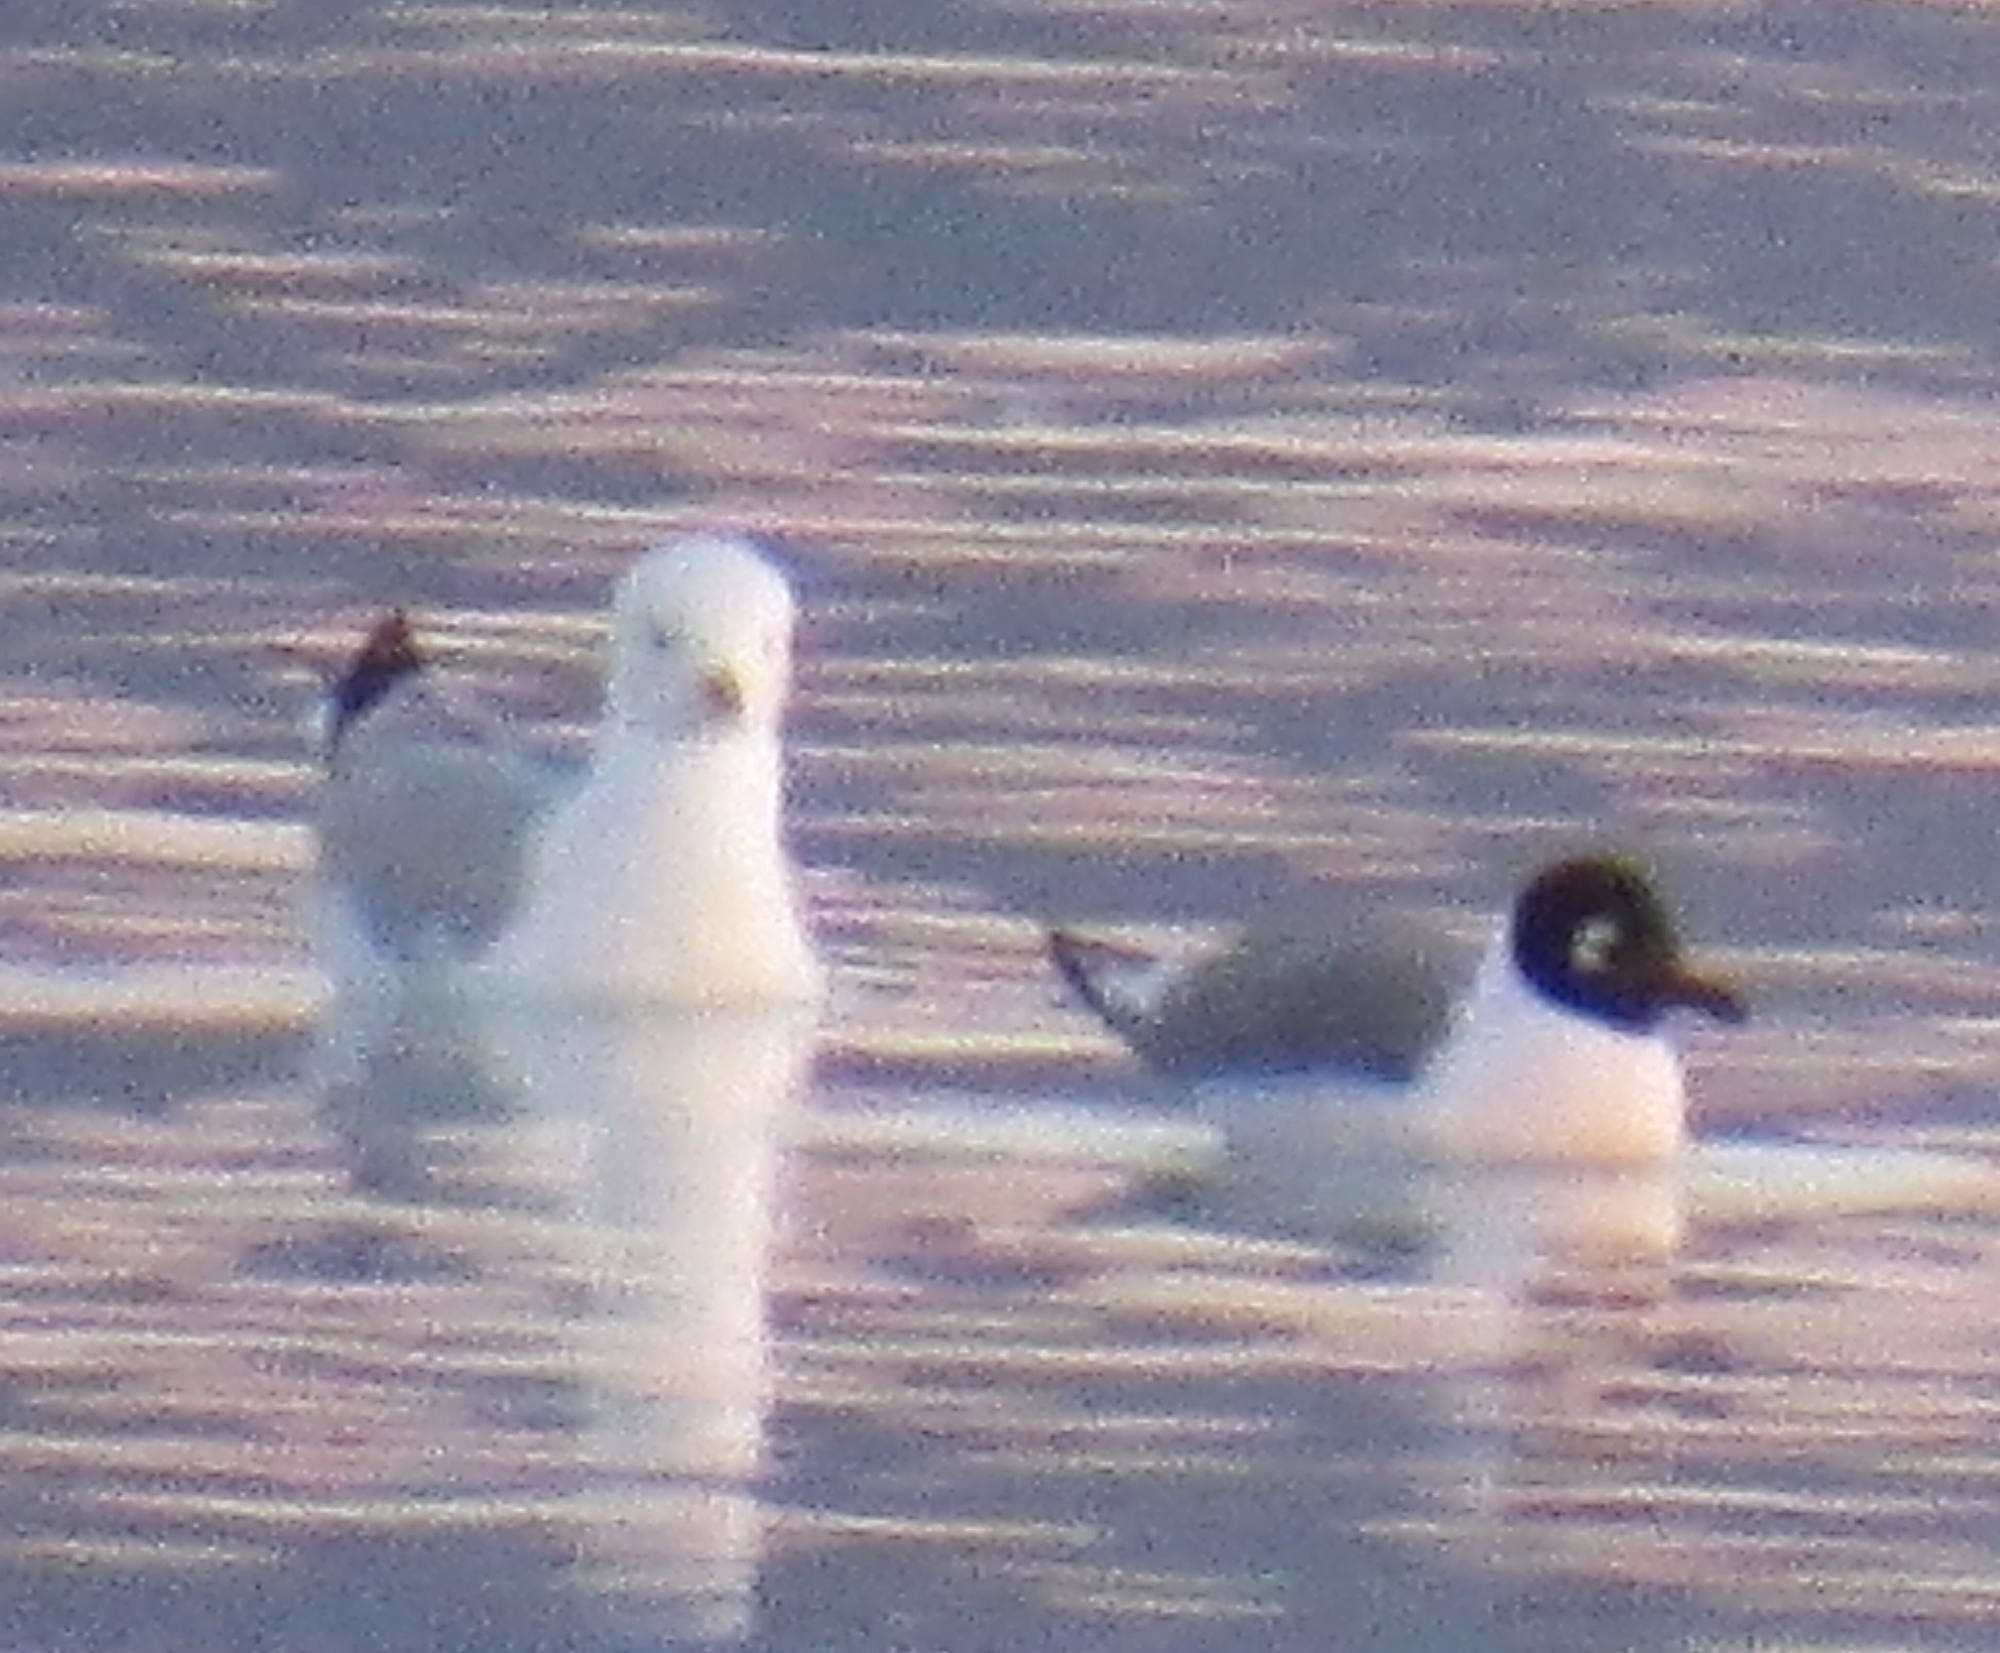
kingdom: Animalia
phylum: Chordata
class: Aves
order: Charadriiformes
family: Laridae
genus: Leucophaeus
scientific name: Leucophaeus pipixcan
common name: Franklin's gull
